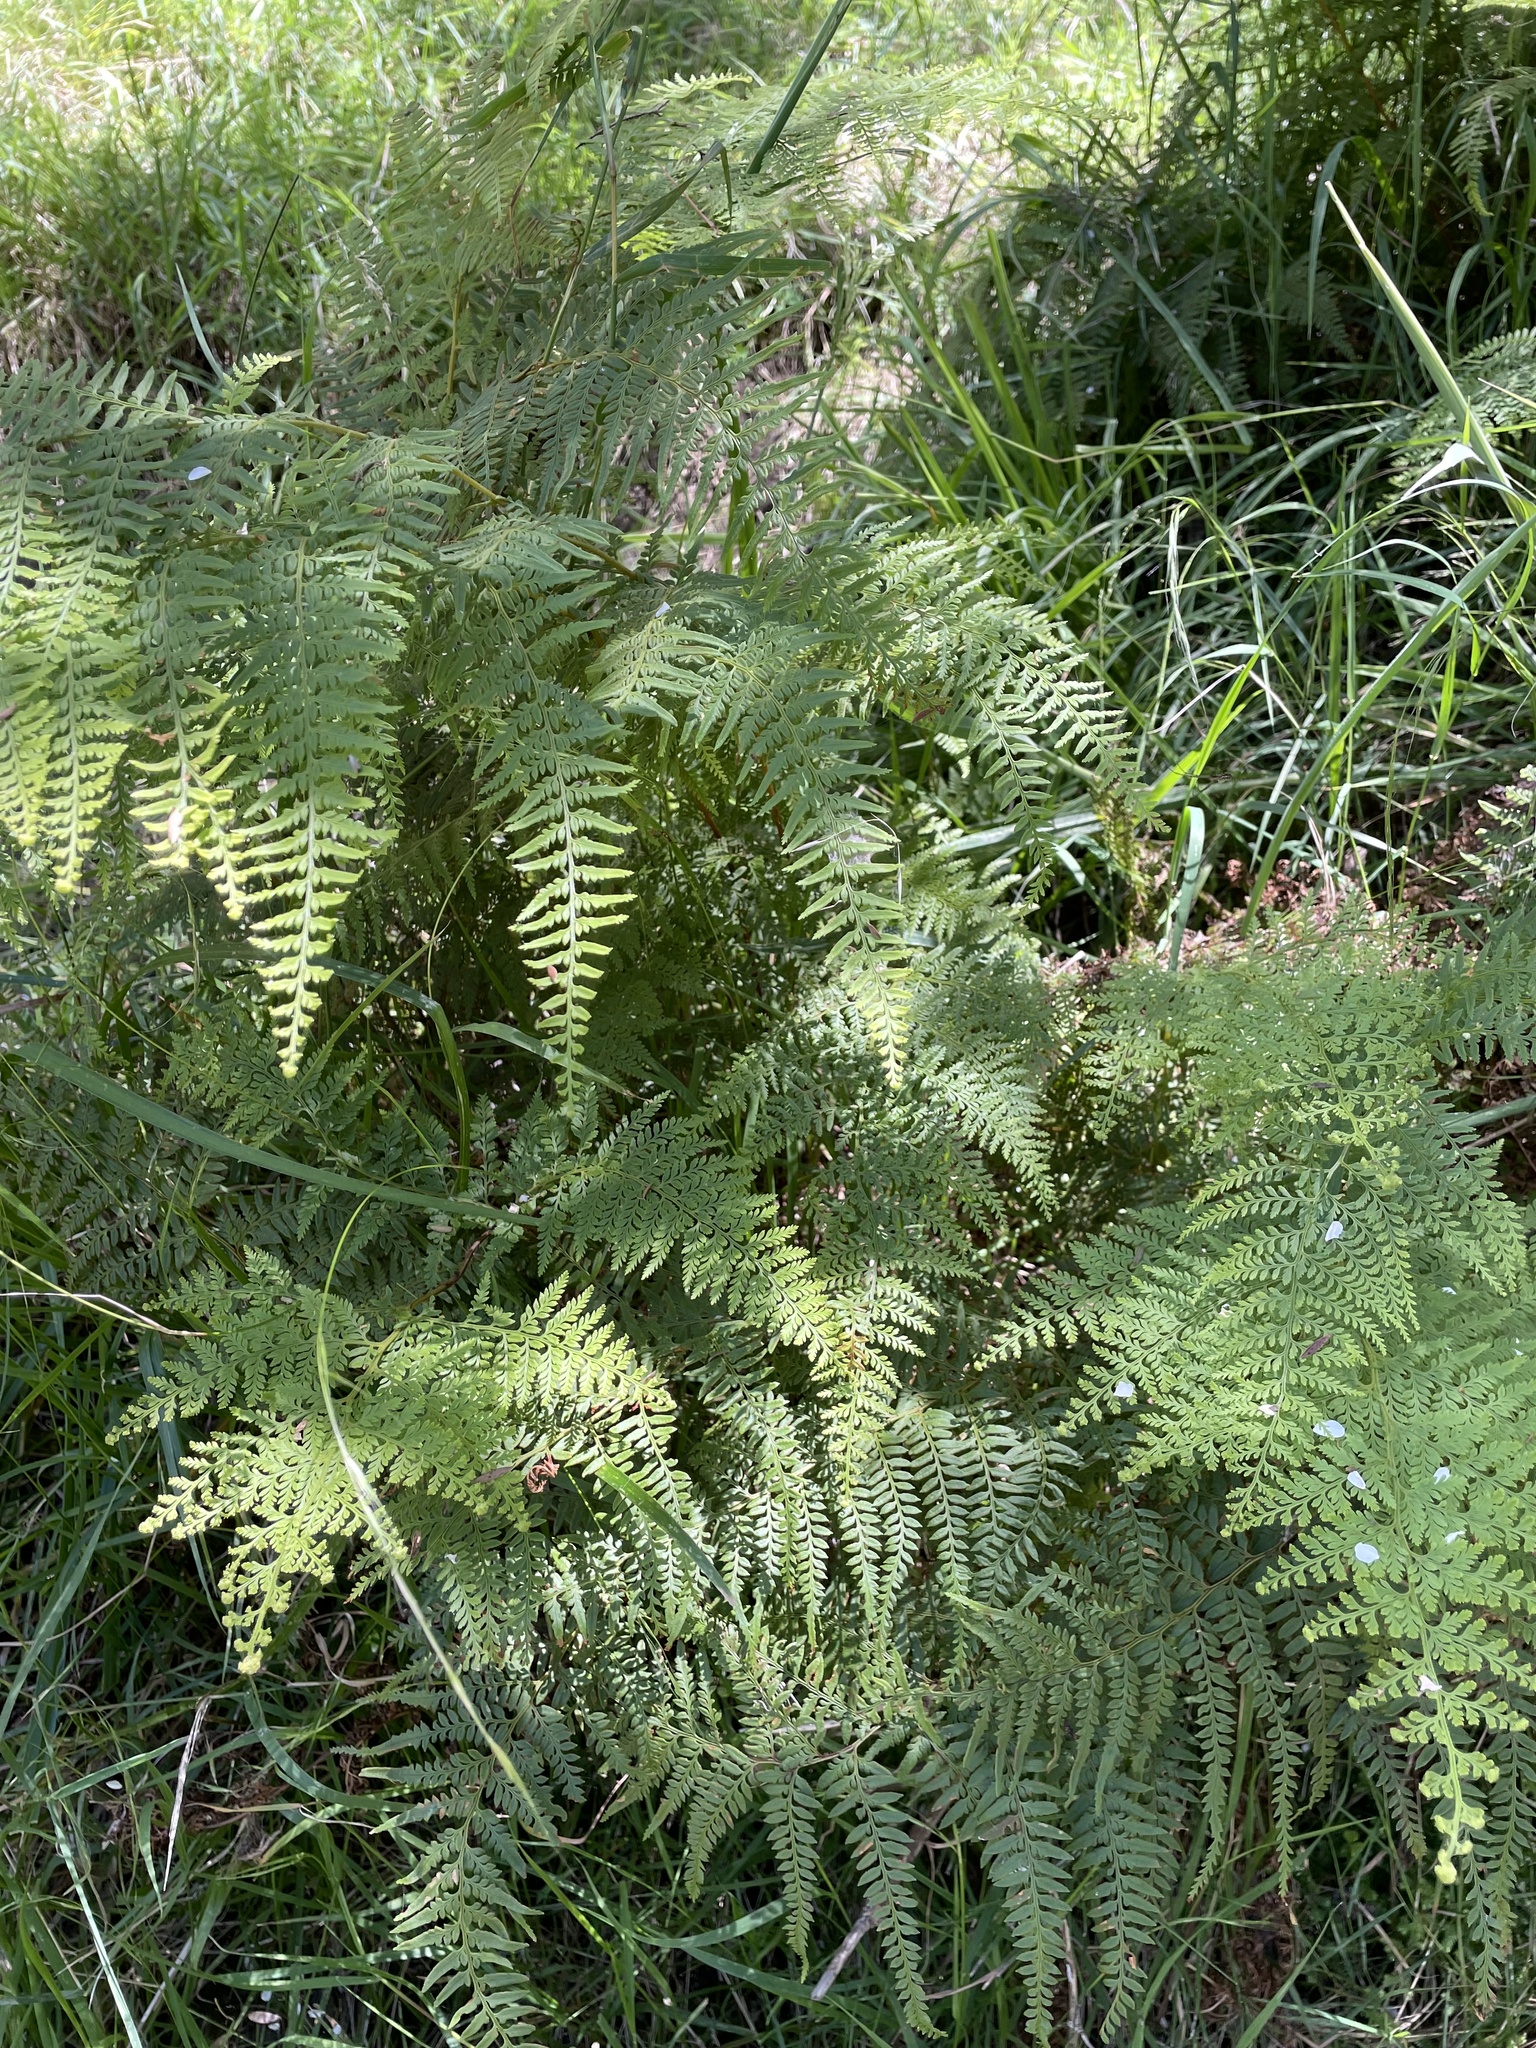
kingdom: Plantae
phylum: Tracheophyta
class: Polypodiopsida
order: Polypodiales
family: Dennstaedtiaceae
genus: Paesia
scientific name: Paesia scaberula
